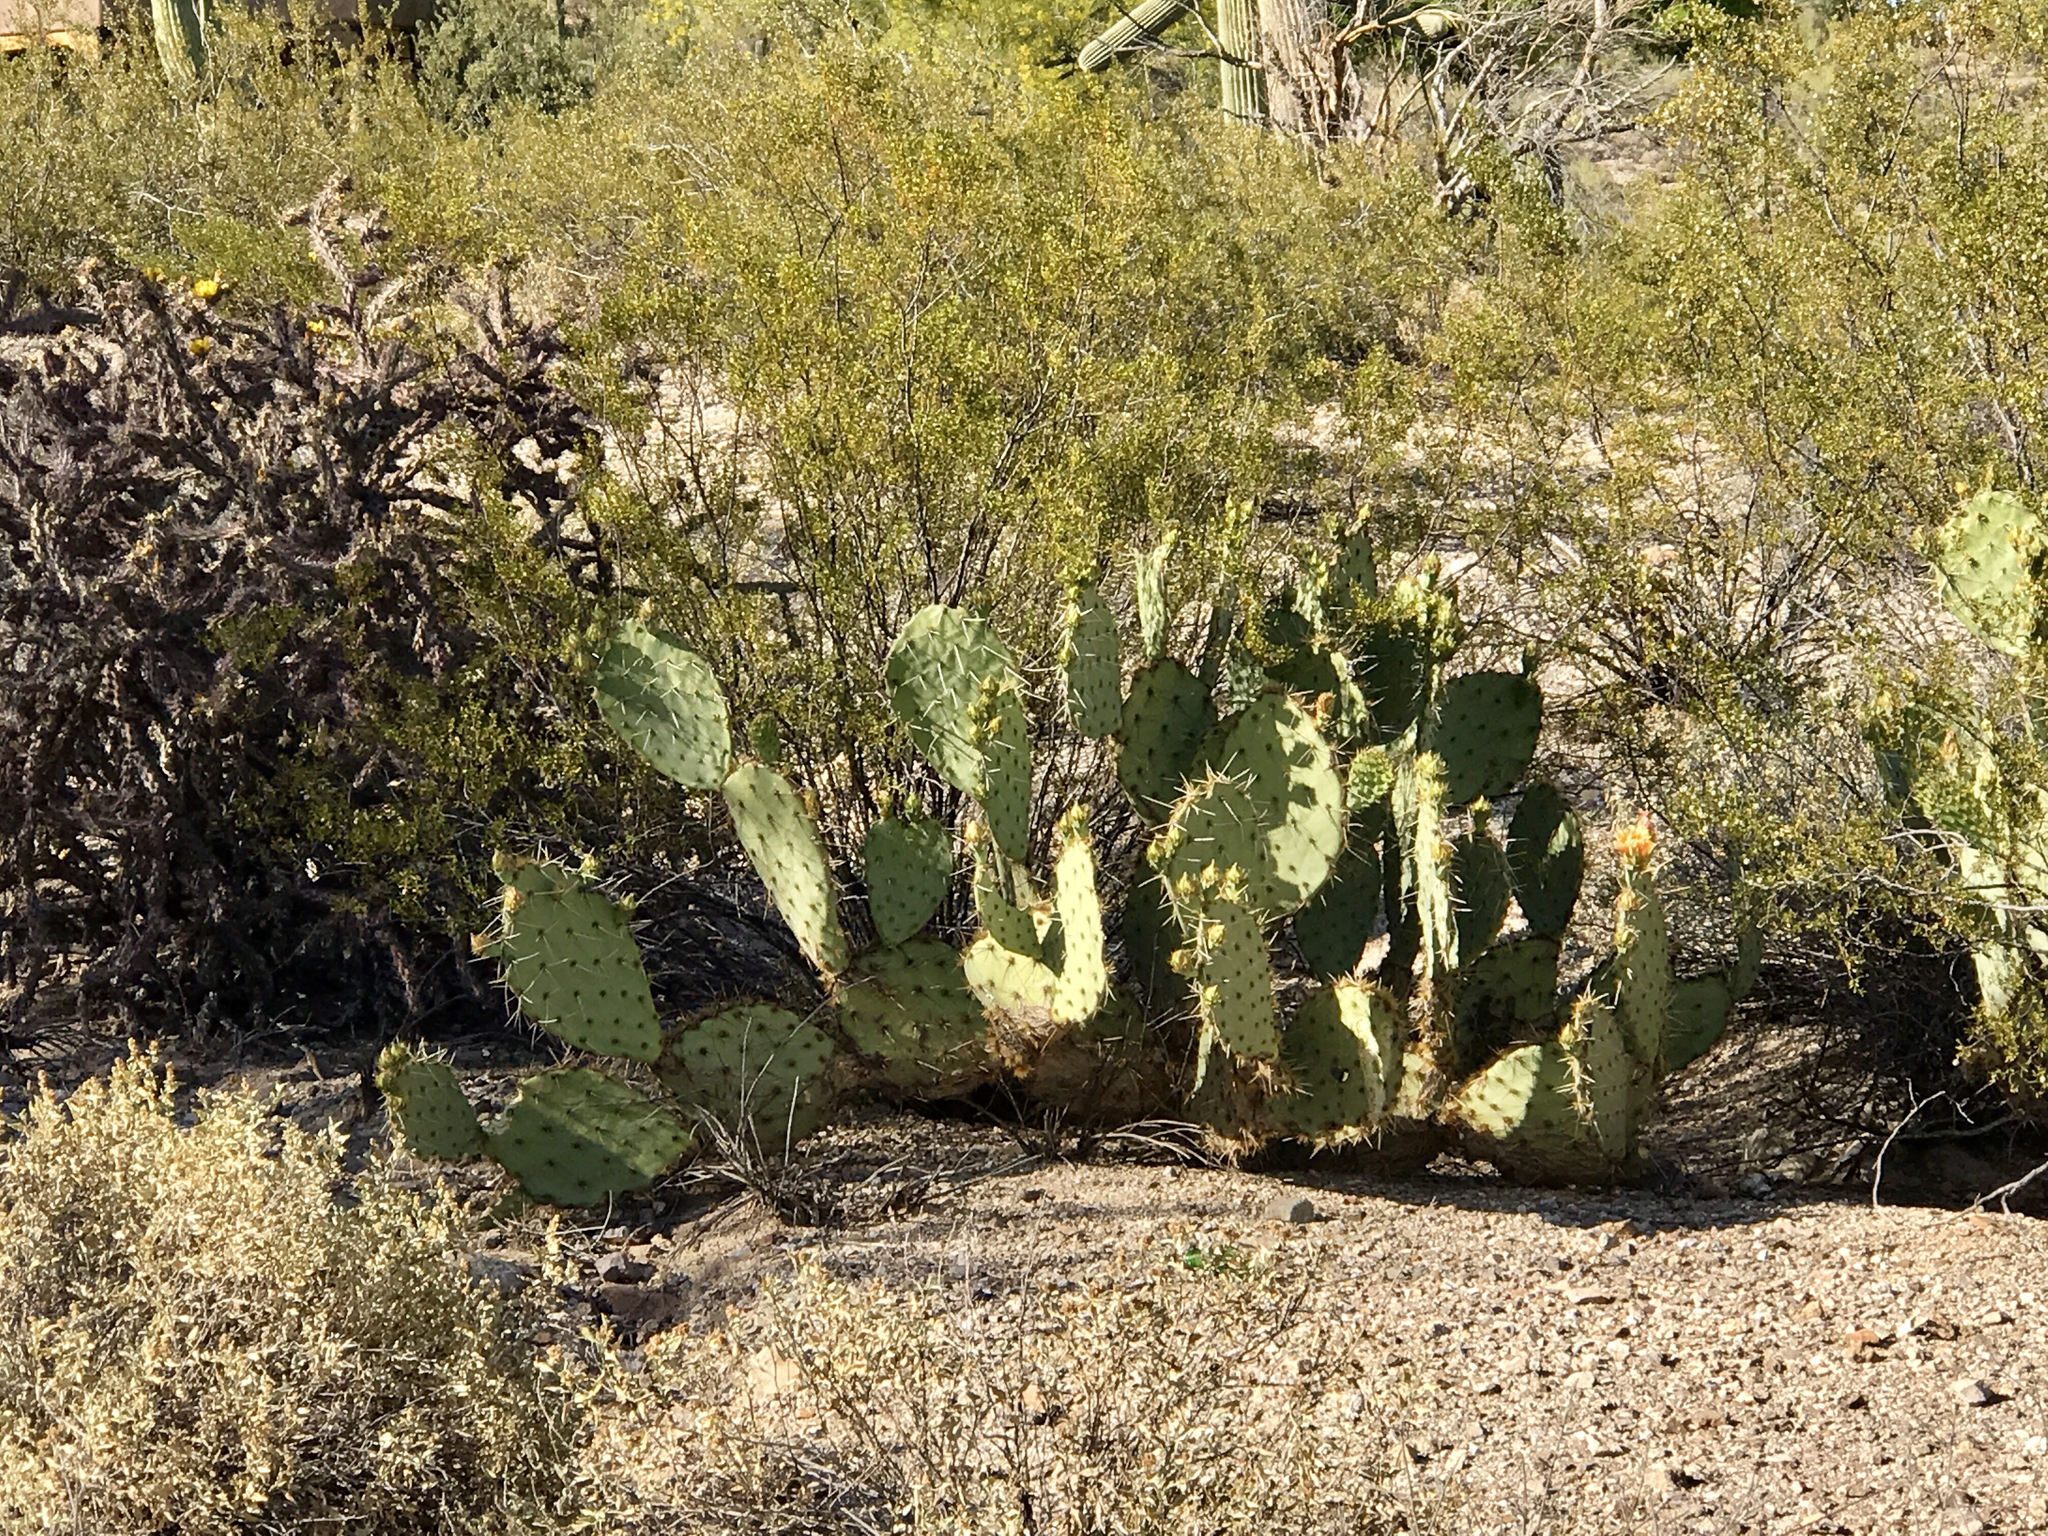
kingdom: Plantae
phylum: Tracheophyta
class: Magnoliopsida
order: Caryophyllales
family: Cactaceae
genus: Opuntia
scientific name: Opuntia engelmannii
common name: Cactus-apple
